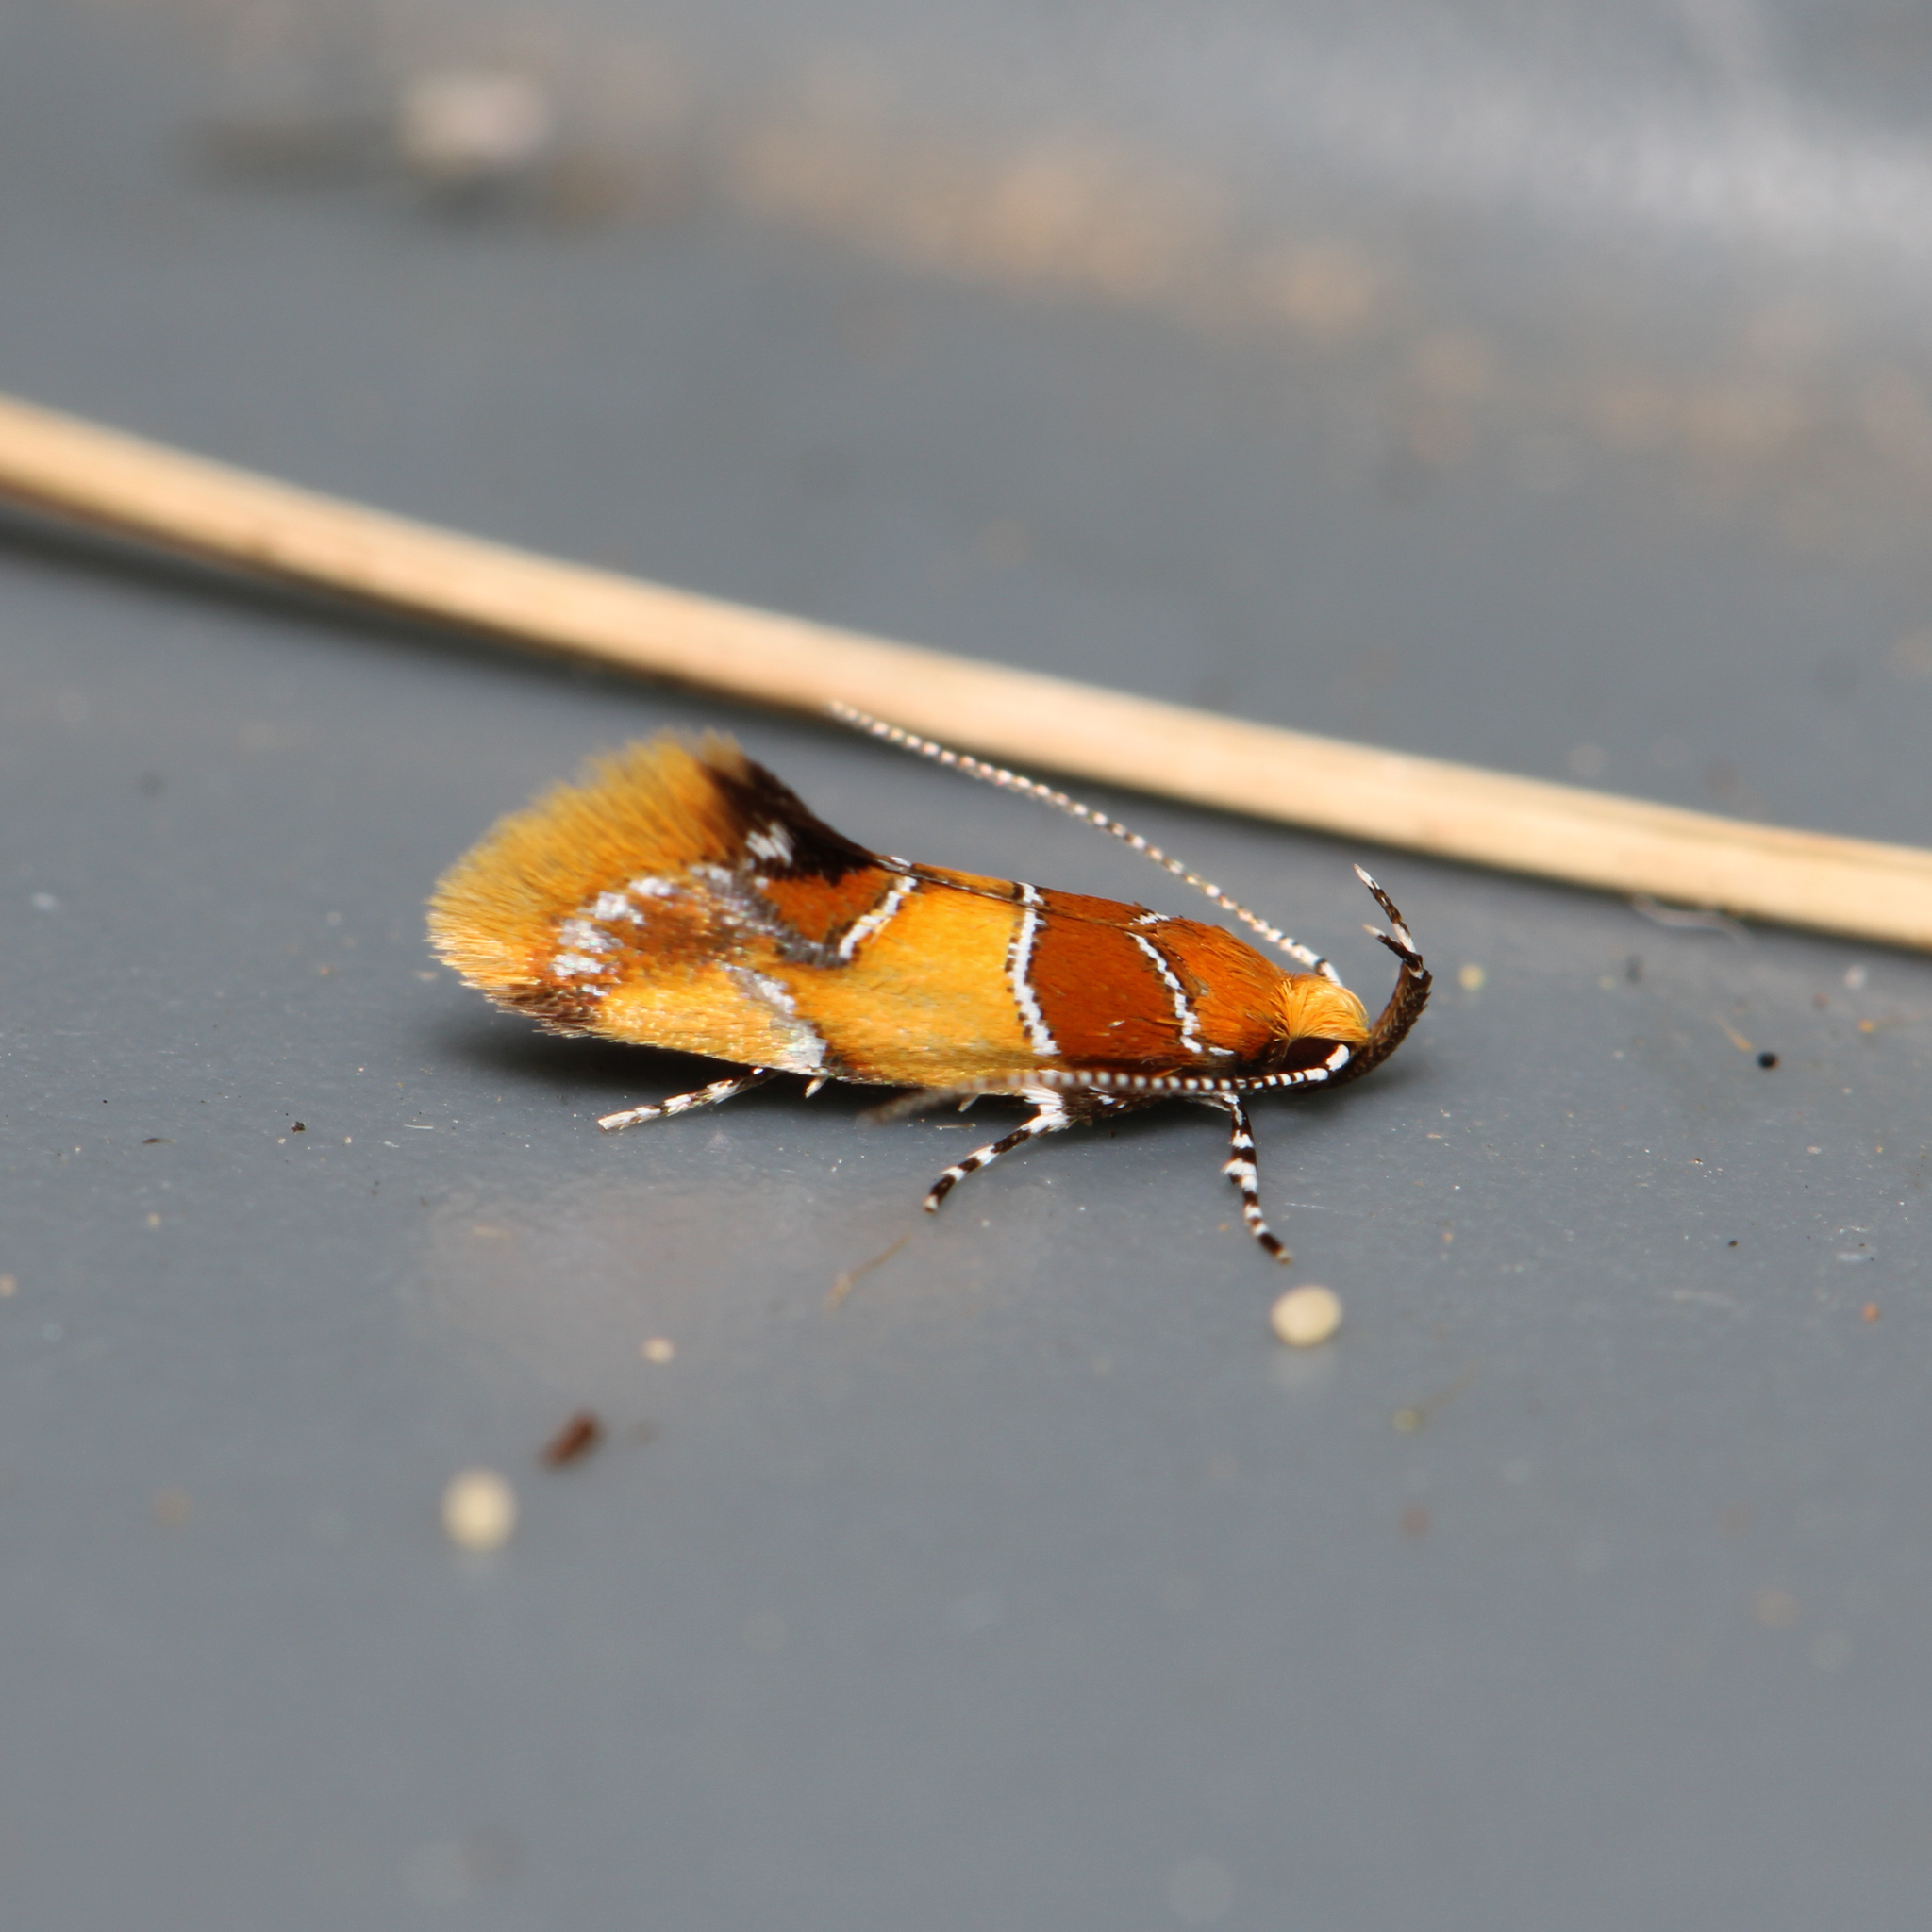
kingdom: Animalia
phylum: Arthropoda
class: Insecta
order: Lepidoptera
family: Oecophoridae
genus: Callima
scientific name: Callima argenticinctella
